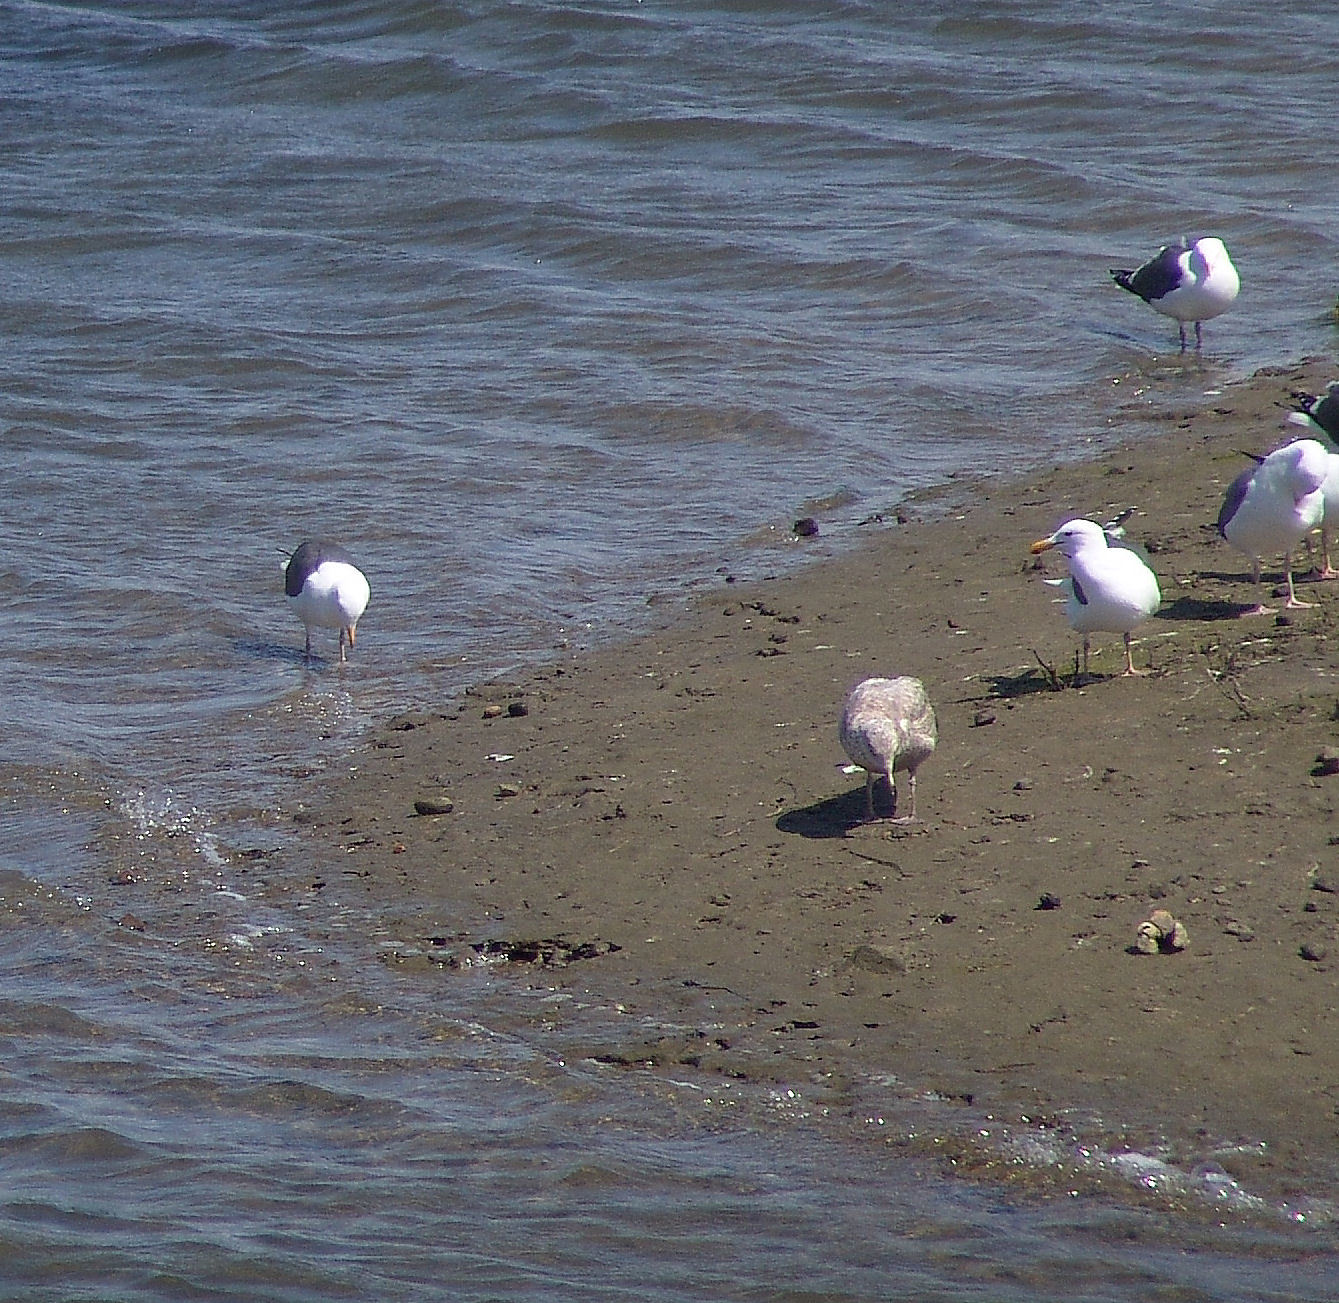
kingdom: Animalia
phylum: Chordata
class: Aves
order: Charadriiformes
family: Laridae
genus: Larus
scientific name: Larus occidentalis
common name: Western gull
